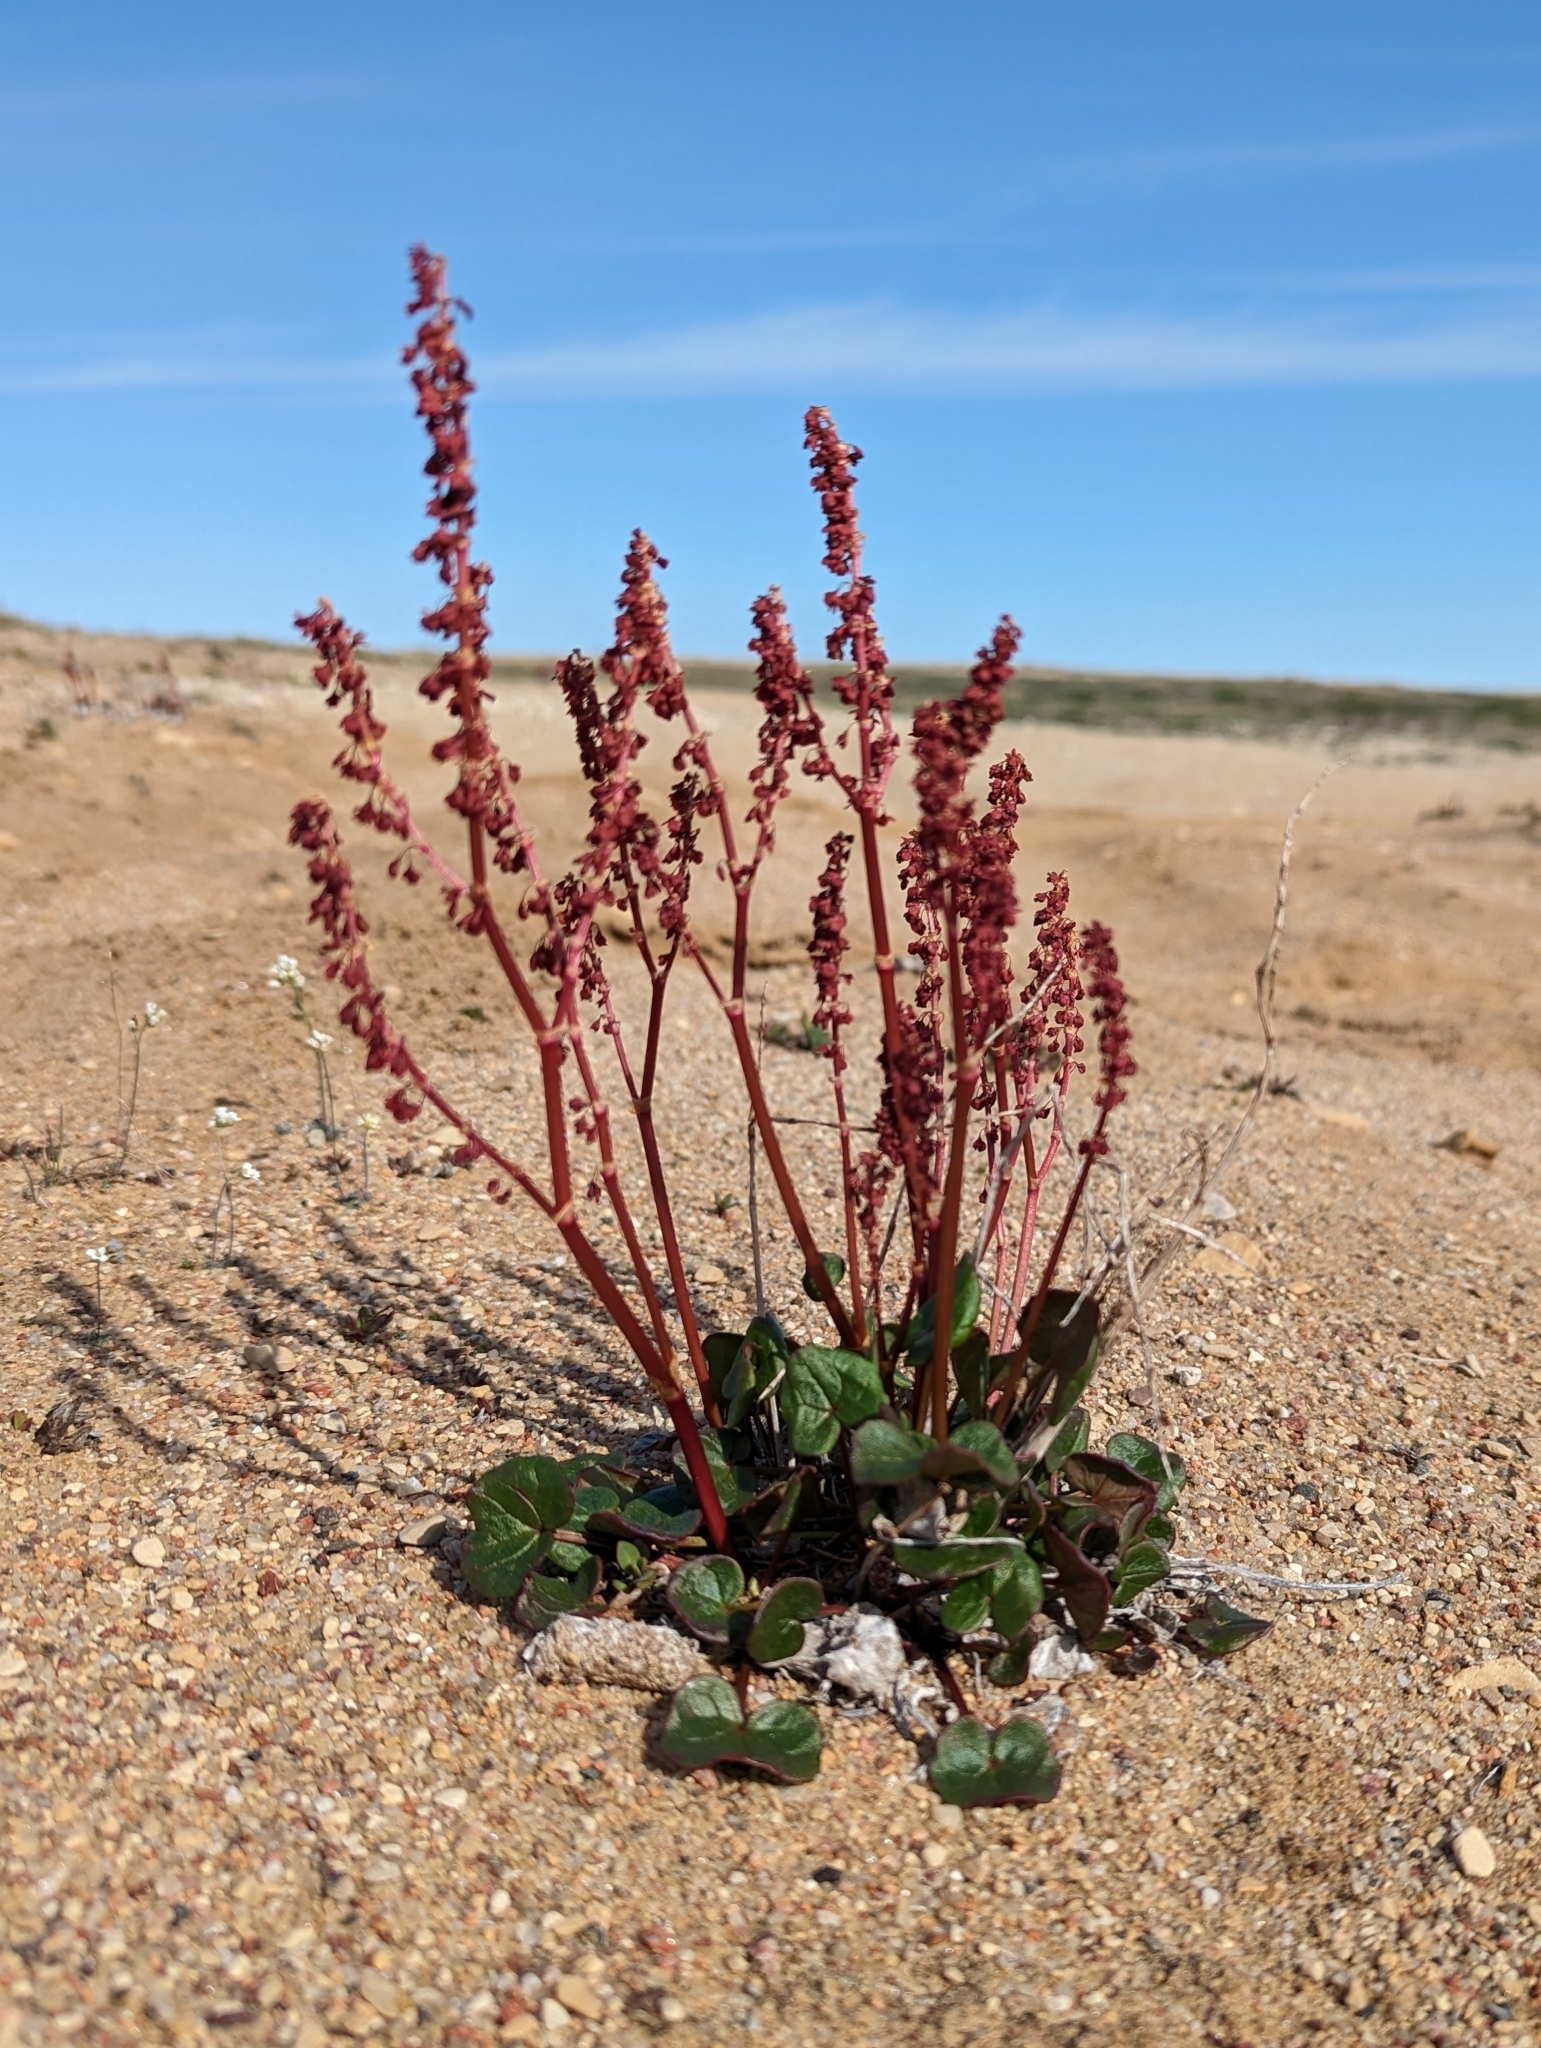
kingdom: Plantae
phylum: Tracheophyta
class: Magnoliopsida
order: Caryophyllales
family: Polygonaceae
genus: Oxyria
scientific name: Oxyria digyna
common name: Alpine mountain-sorrel
